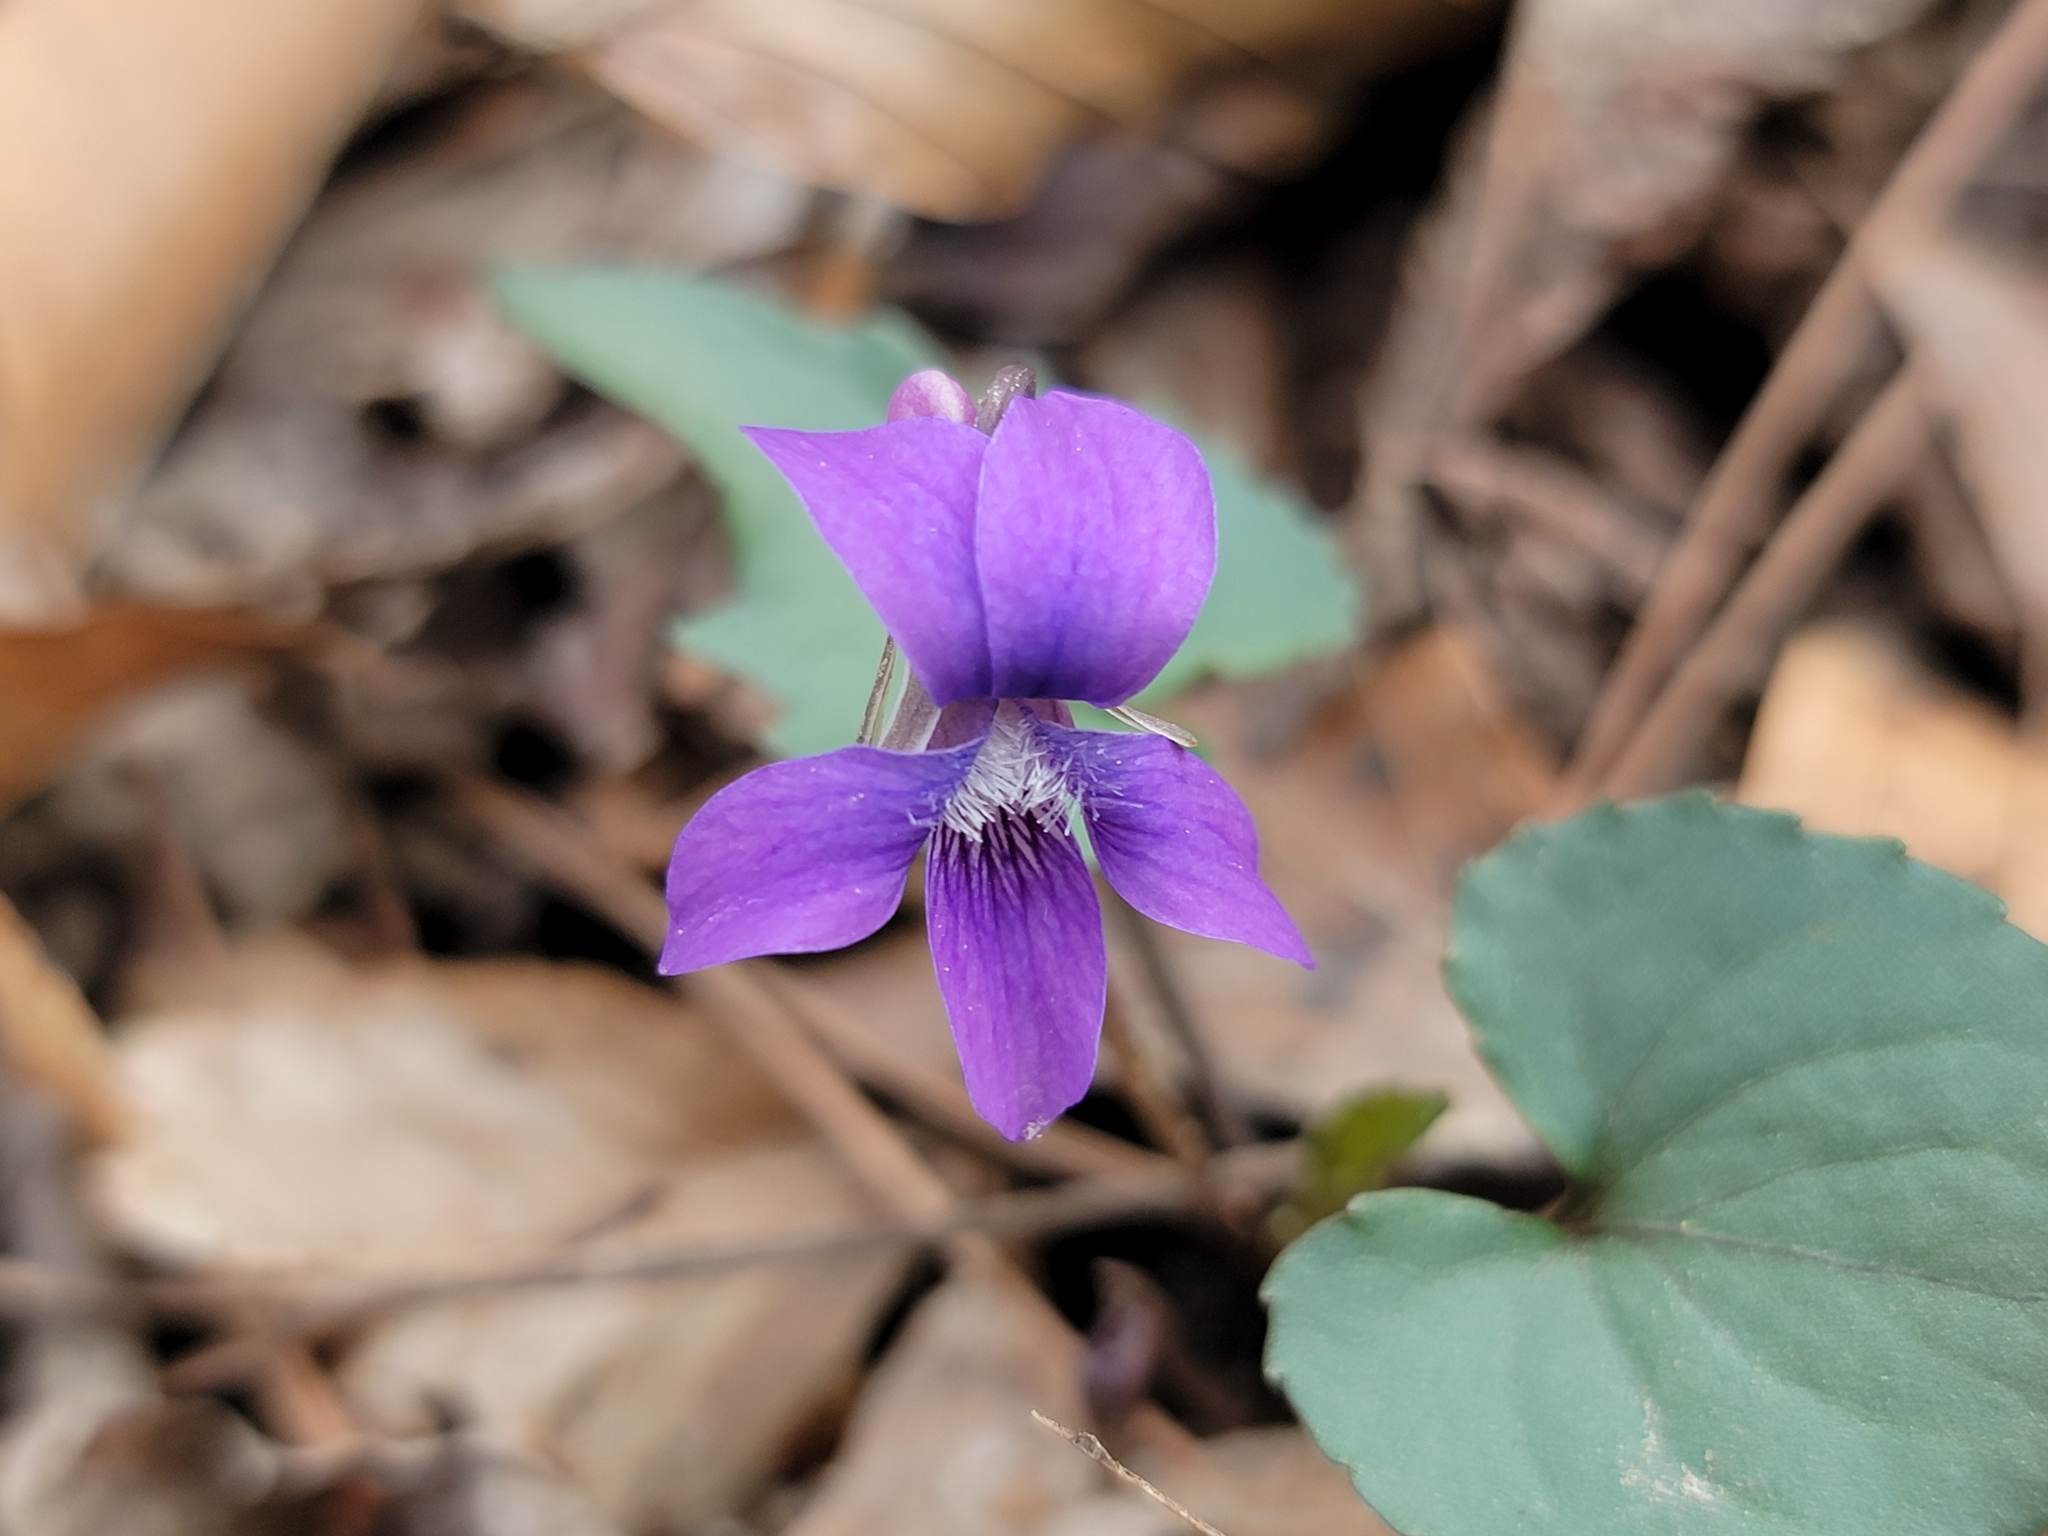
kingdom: Plantae
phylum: Tracheophyta
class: Magnoliopsida
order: Malpighiales
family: Violaceae
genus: Viola
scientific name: Viola palmata
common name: Early blue violet
